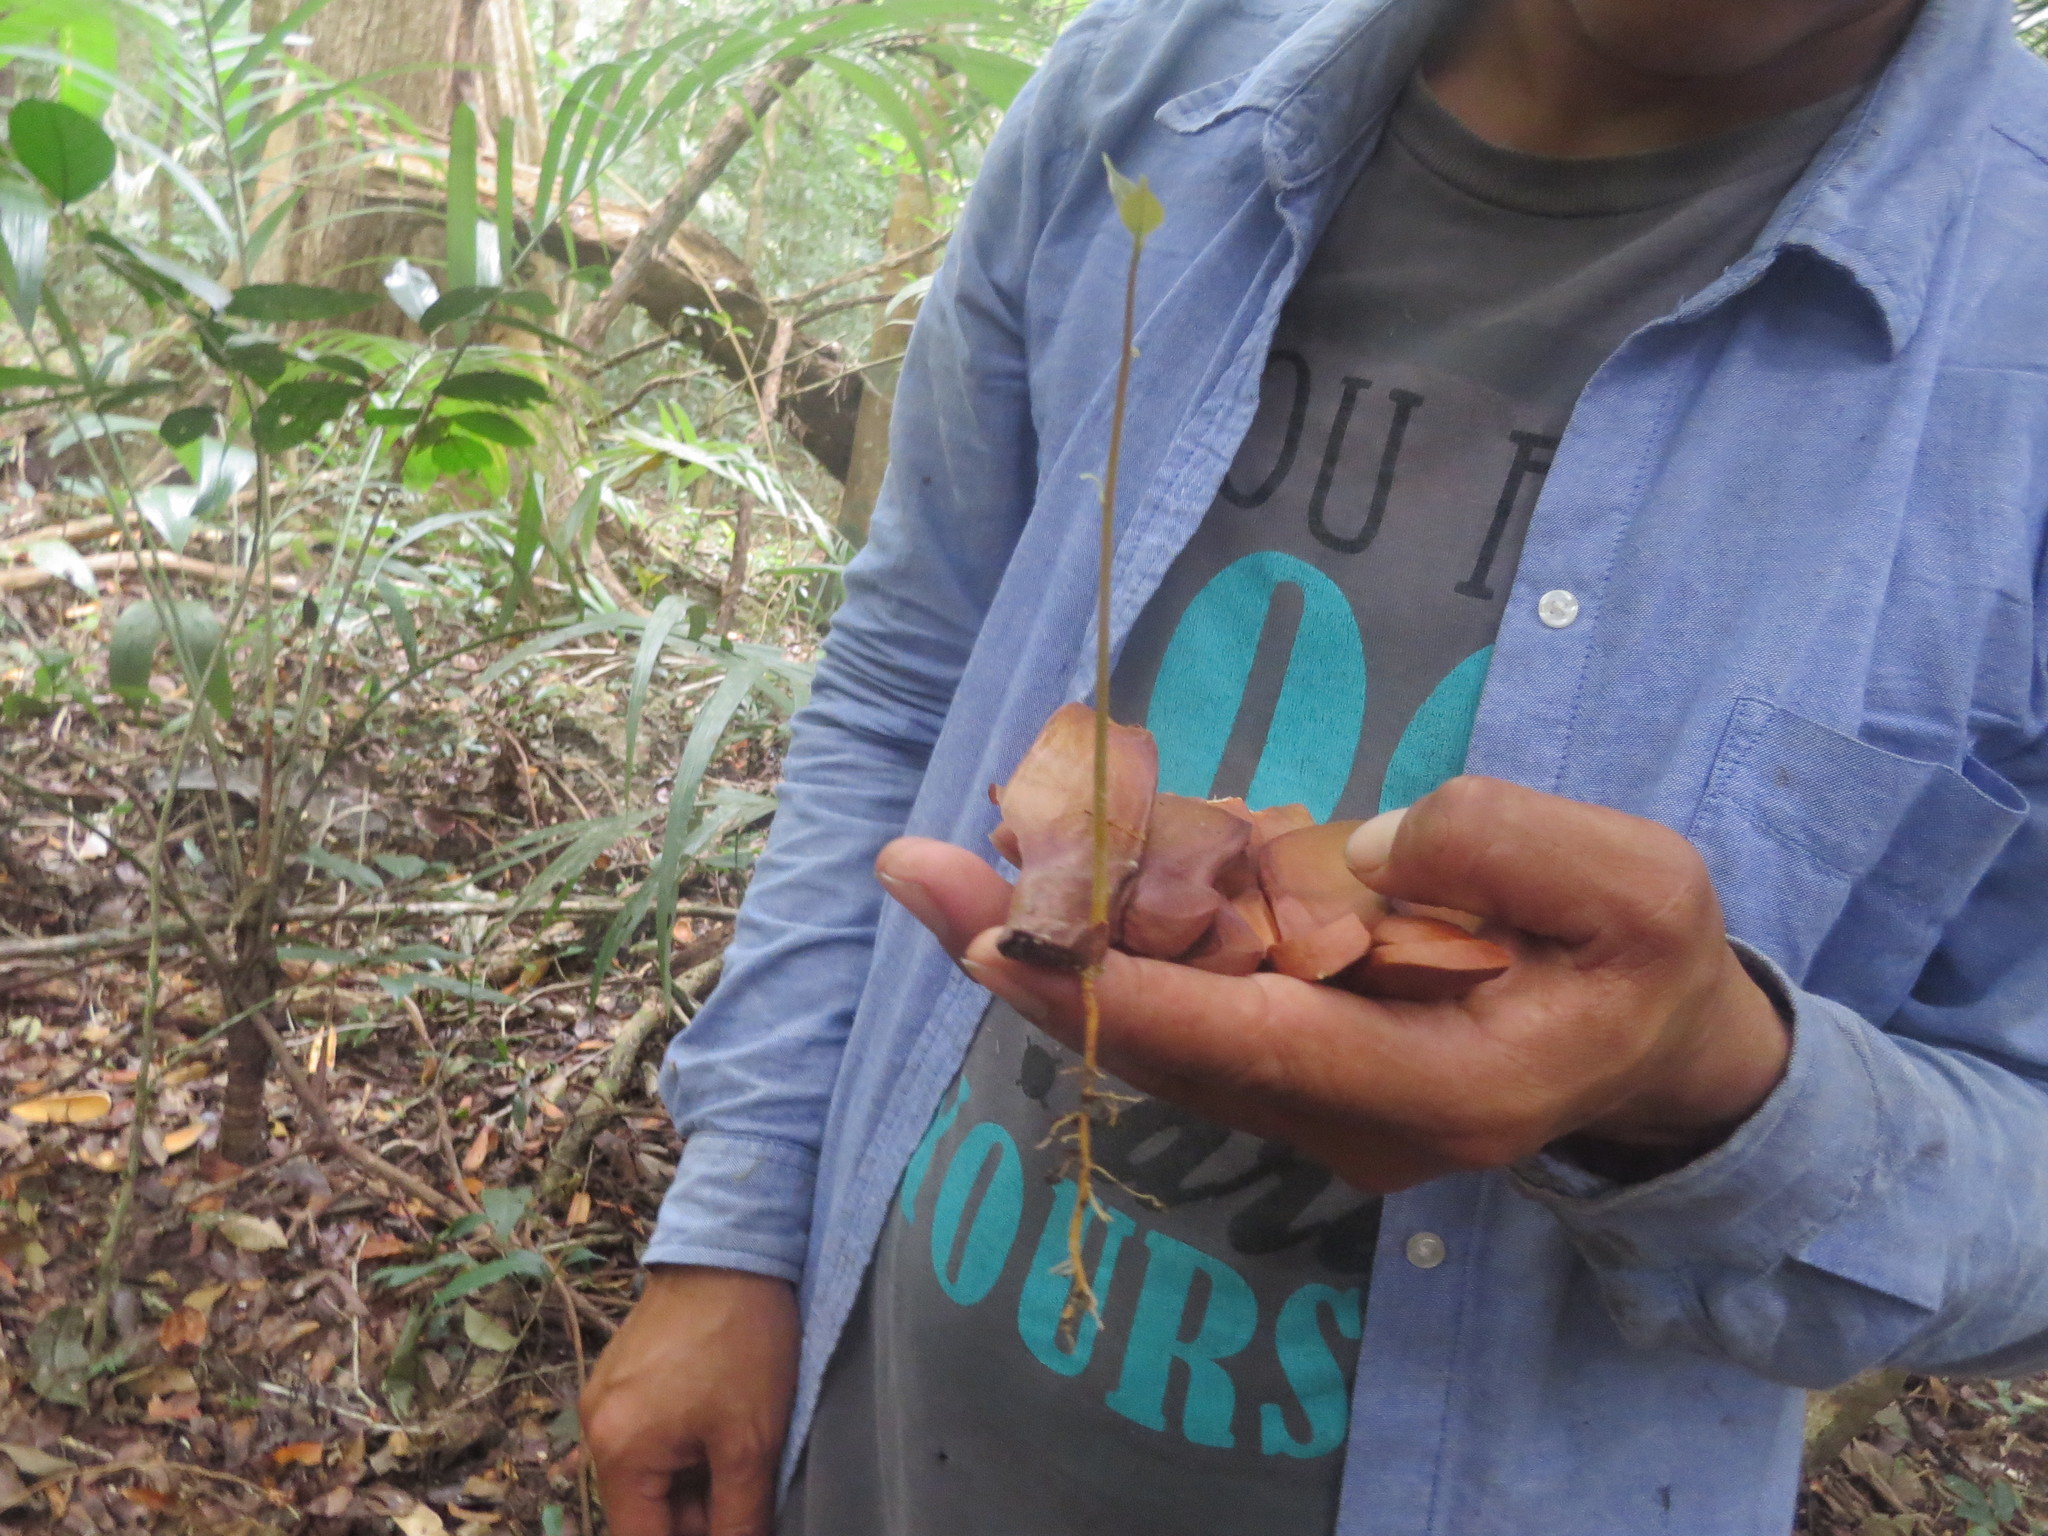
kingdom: Plantae
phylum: Tracheophyta
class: Magnoliopsida
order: Sapindales
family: Meliaceae
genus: Swietenia
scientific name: Swietenia macrophylla
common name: Honduras mahogany
